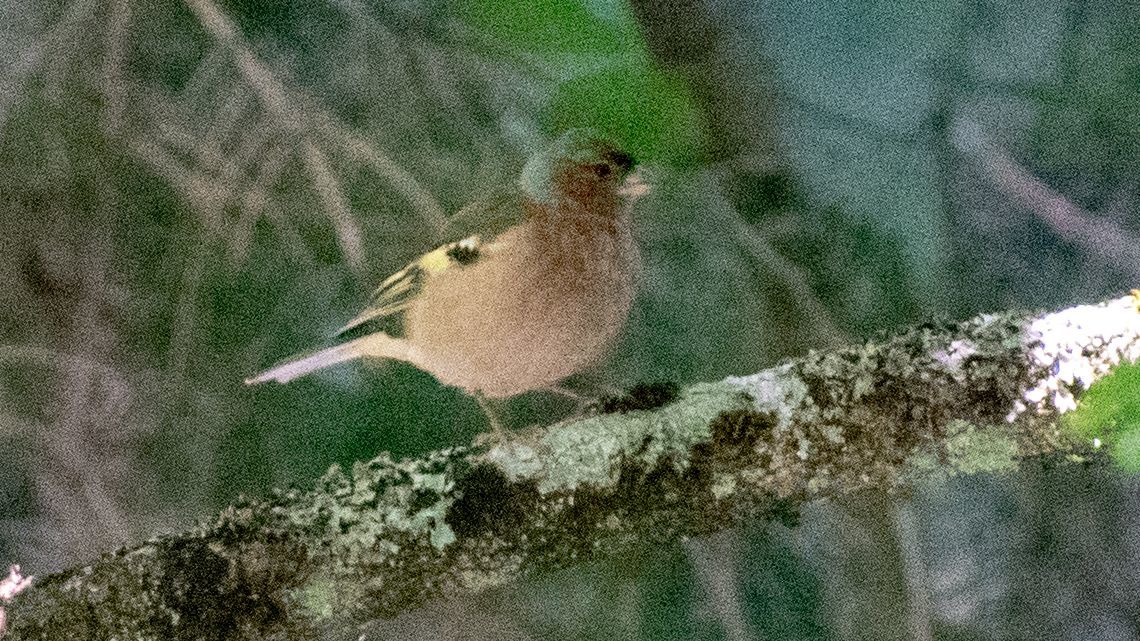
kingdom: Animalia
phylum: Chordata
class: Aves
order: Passeriformes
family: Fringillidae
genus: Fringilla
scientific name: Fringilla coelebs
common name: Common chaffinch
